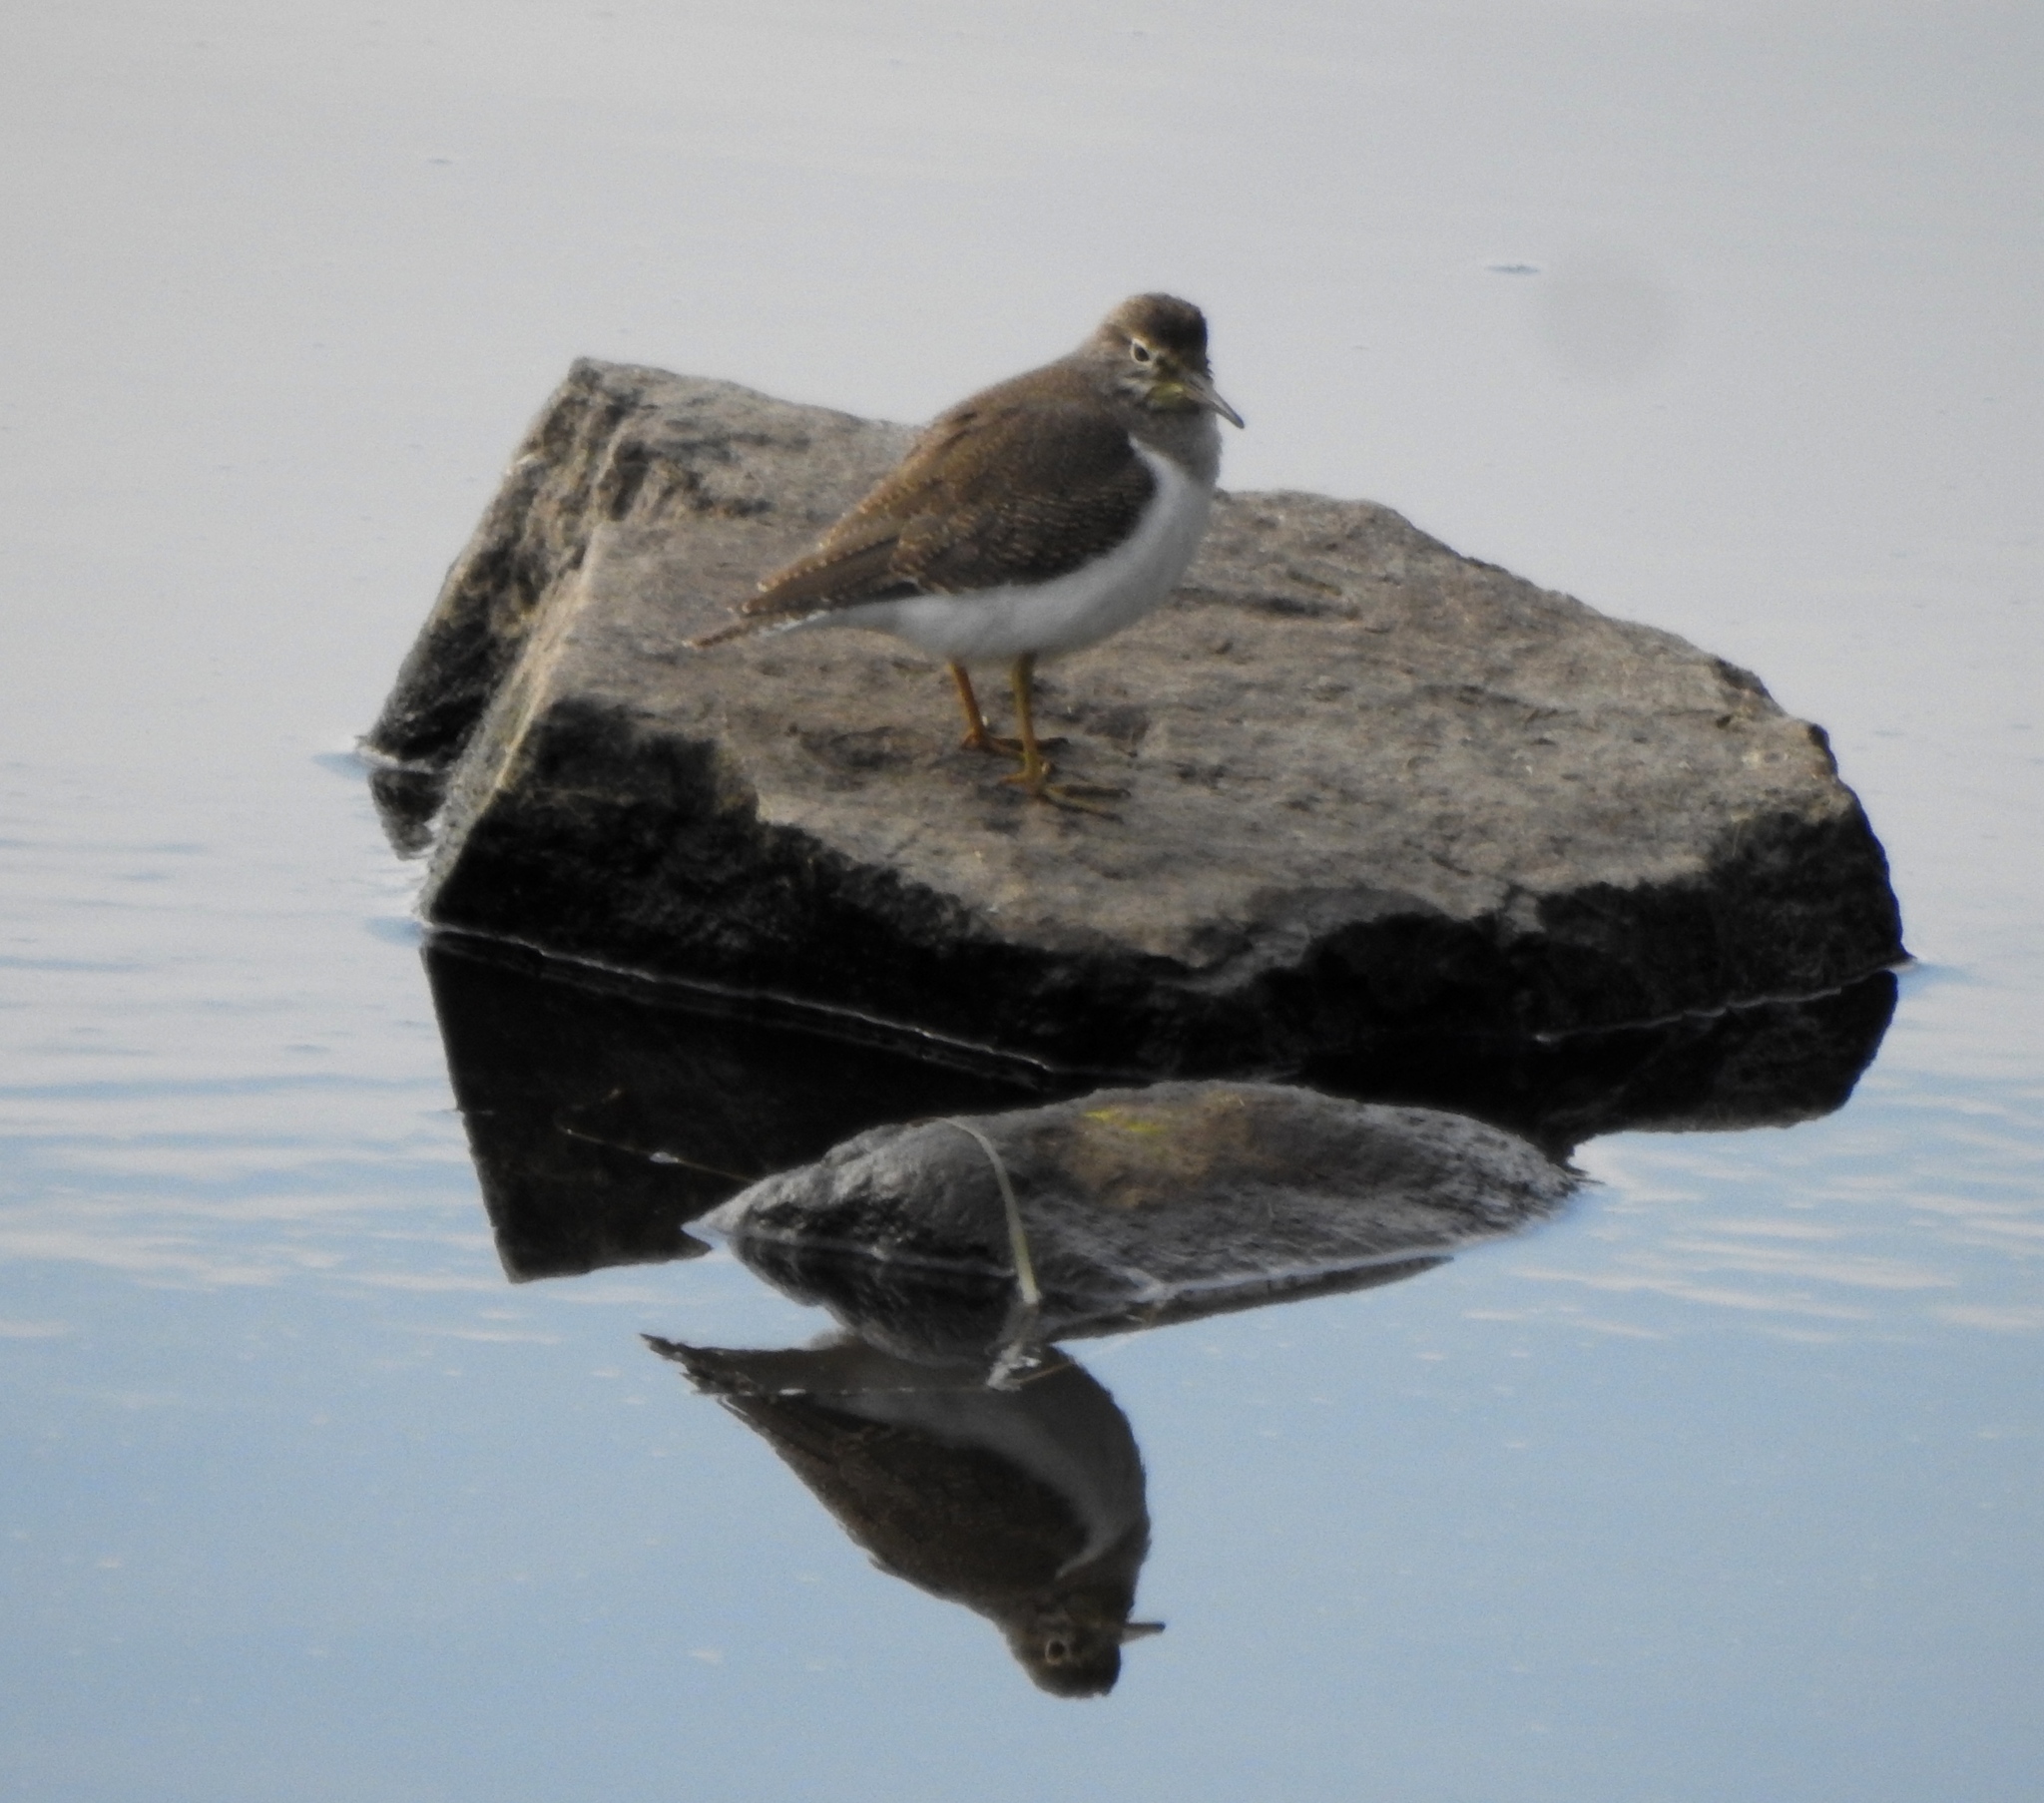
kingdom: Animalia
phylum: Chordata
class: Aves
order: Charadriiformes
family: Scolopacidae
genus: Actitis
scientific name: Actitis hypoleucos
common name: Common sandpiper
